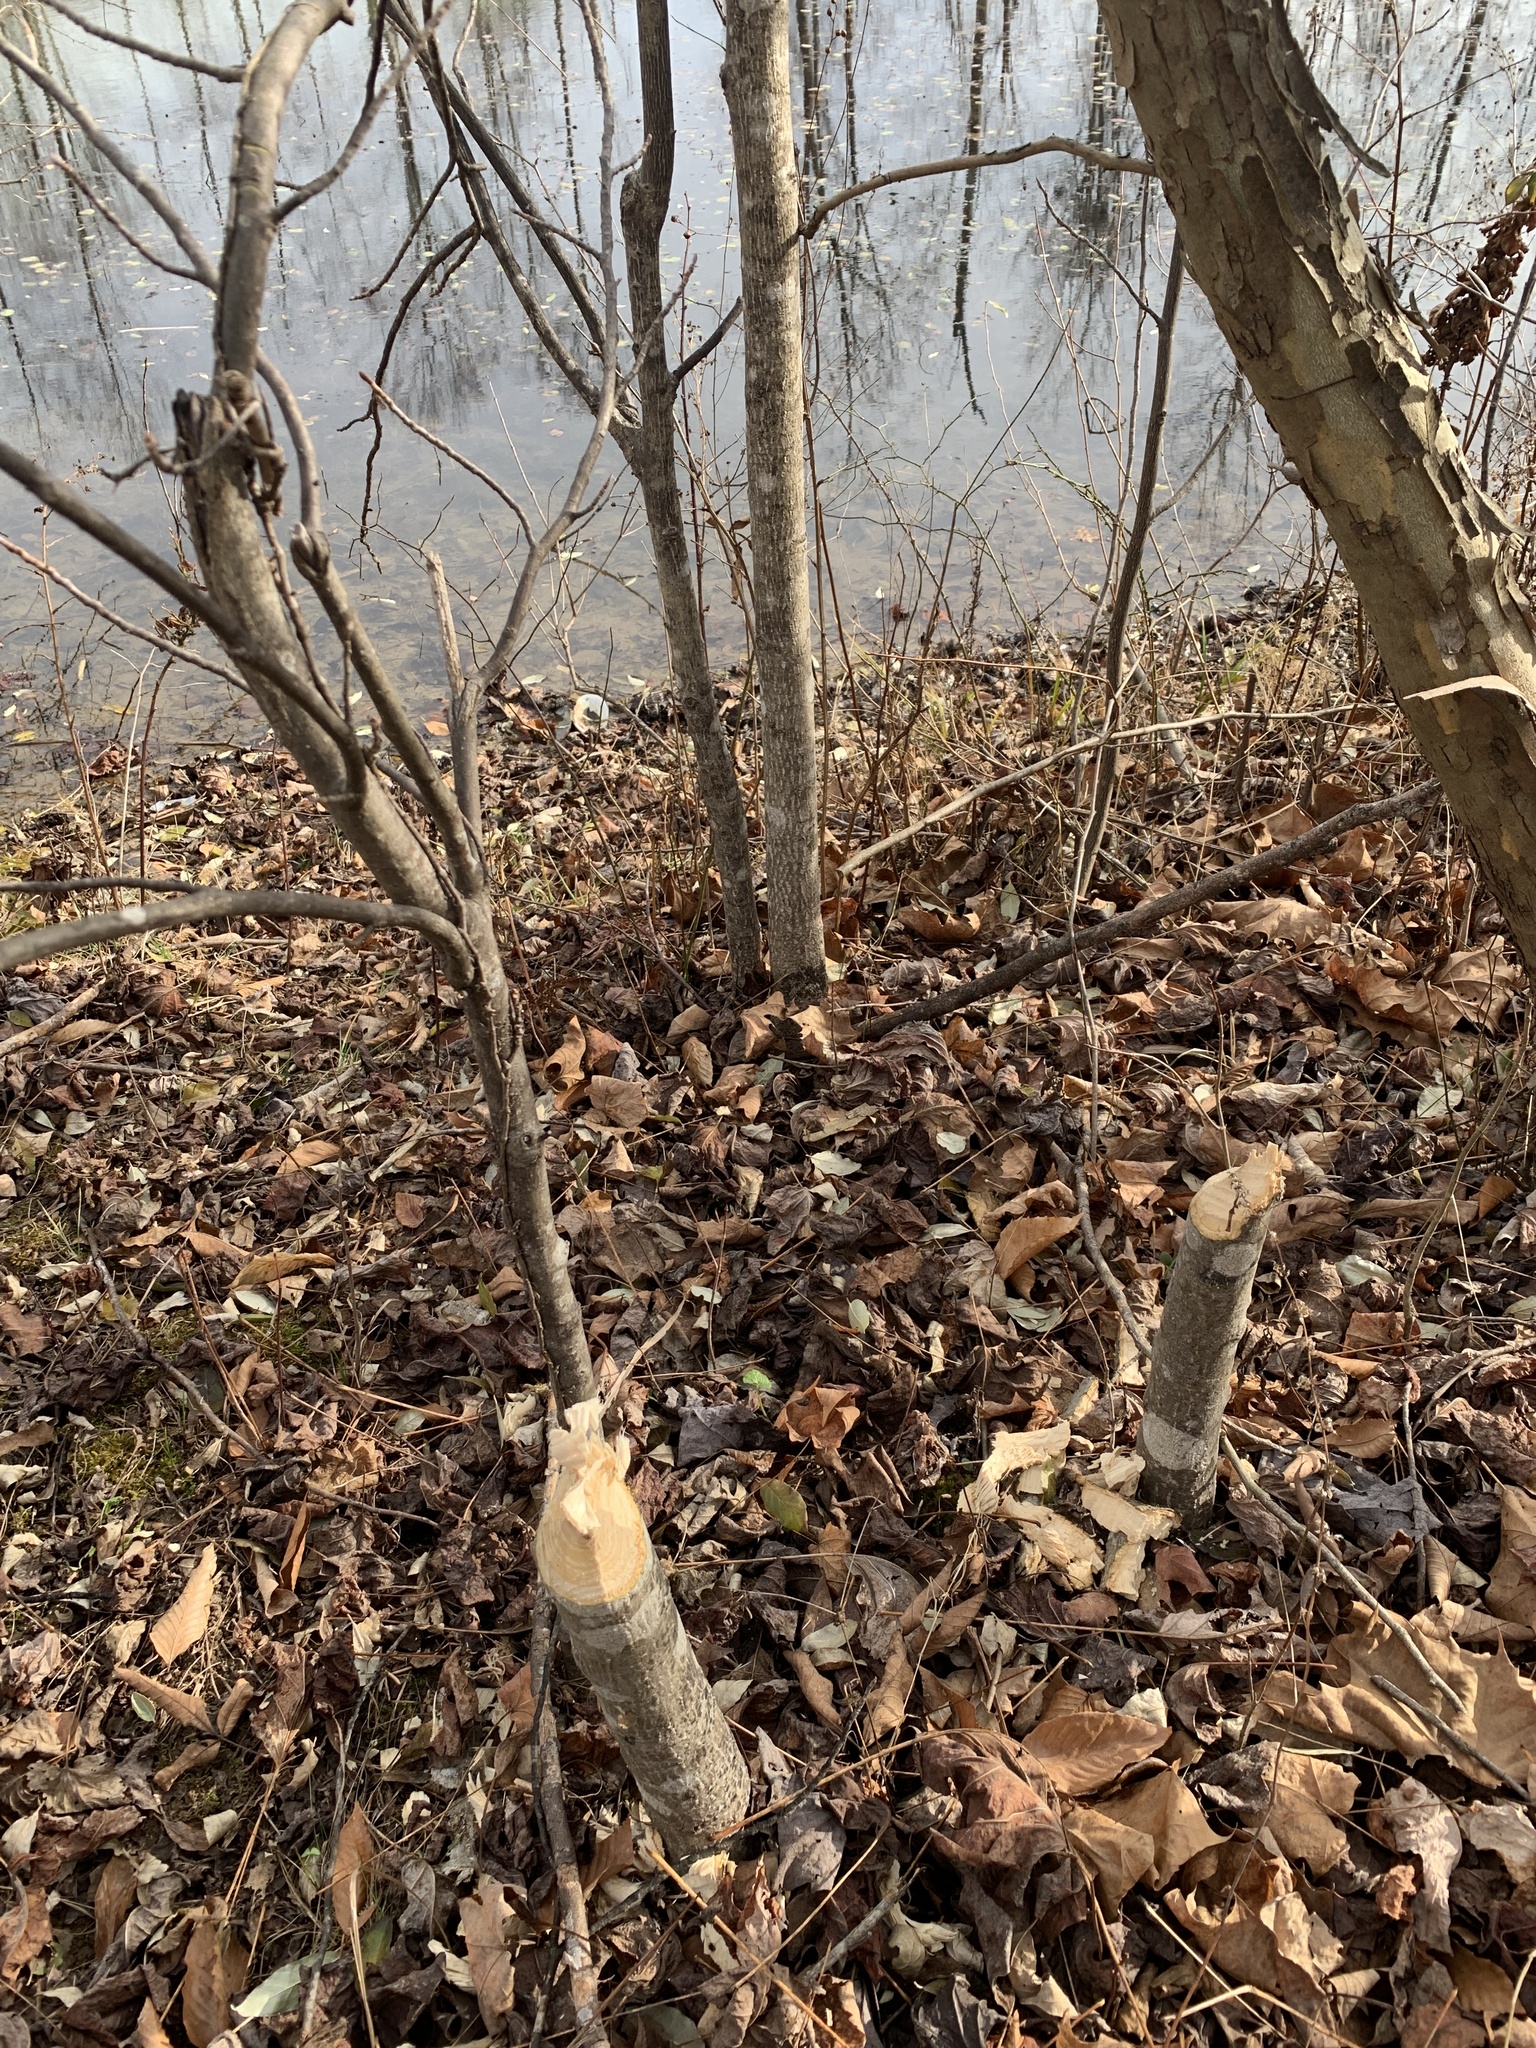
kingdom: Animalia
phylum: Chordata
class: Mammalia
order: Rodentia
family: Castoridae
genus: Castor
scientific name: Castor canadensis
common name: American beaver
